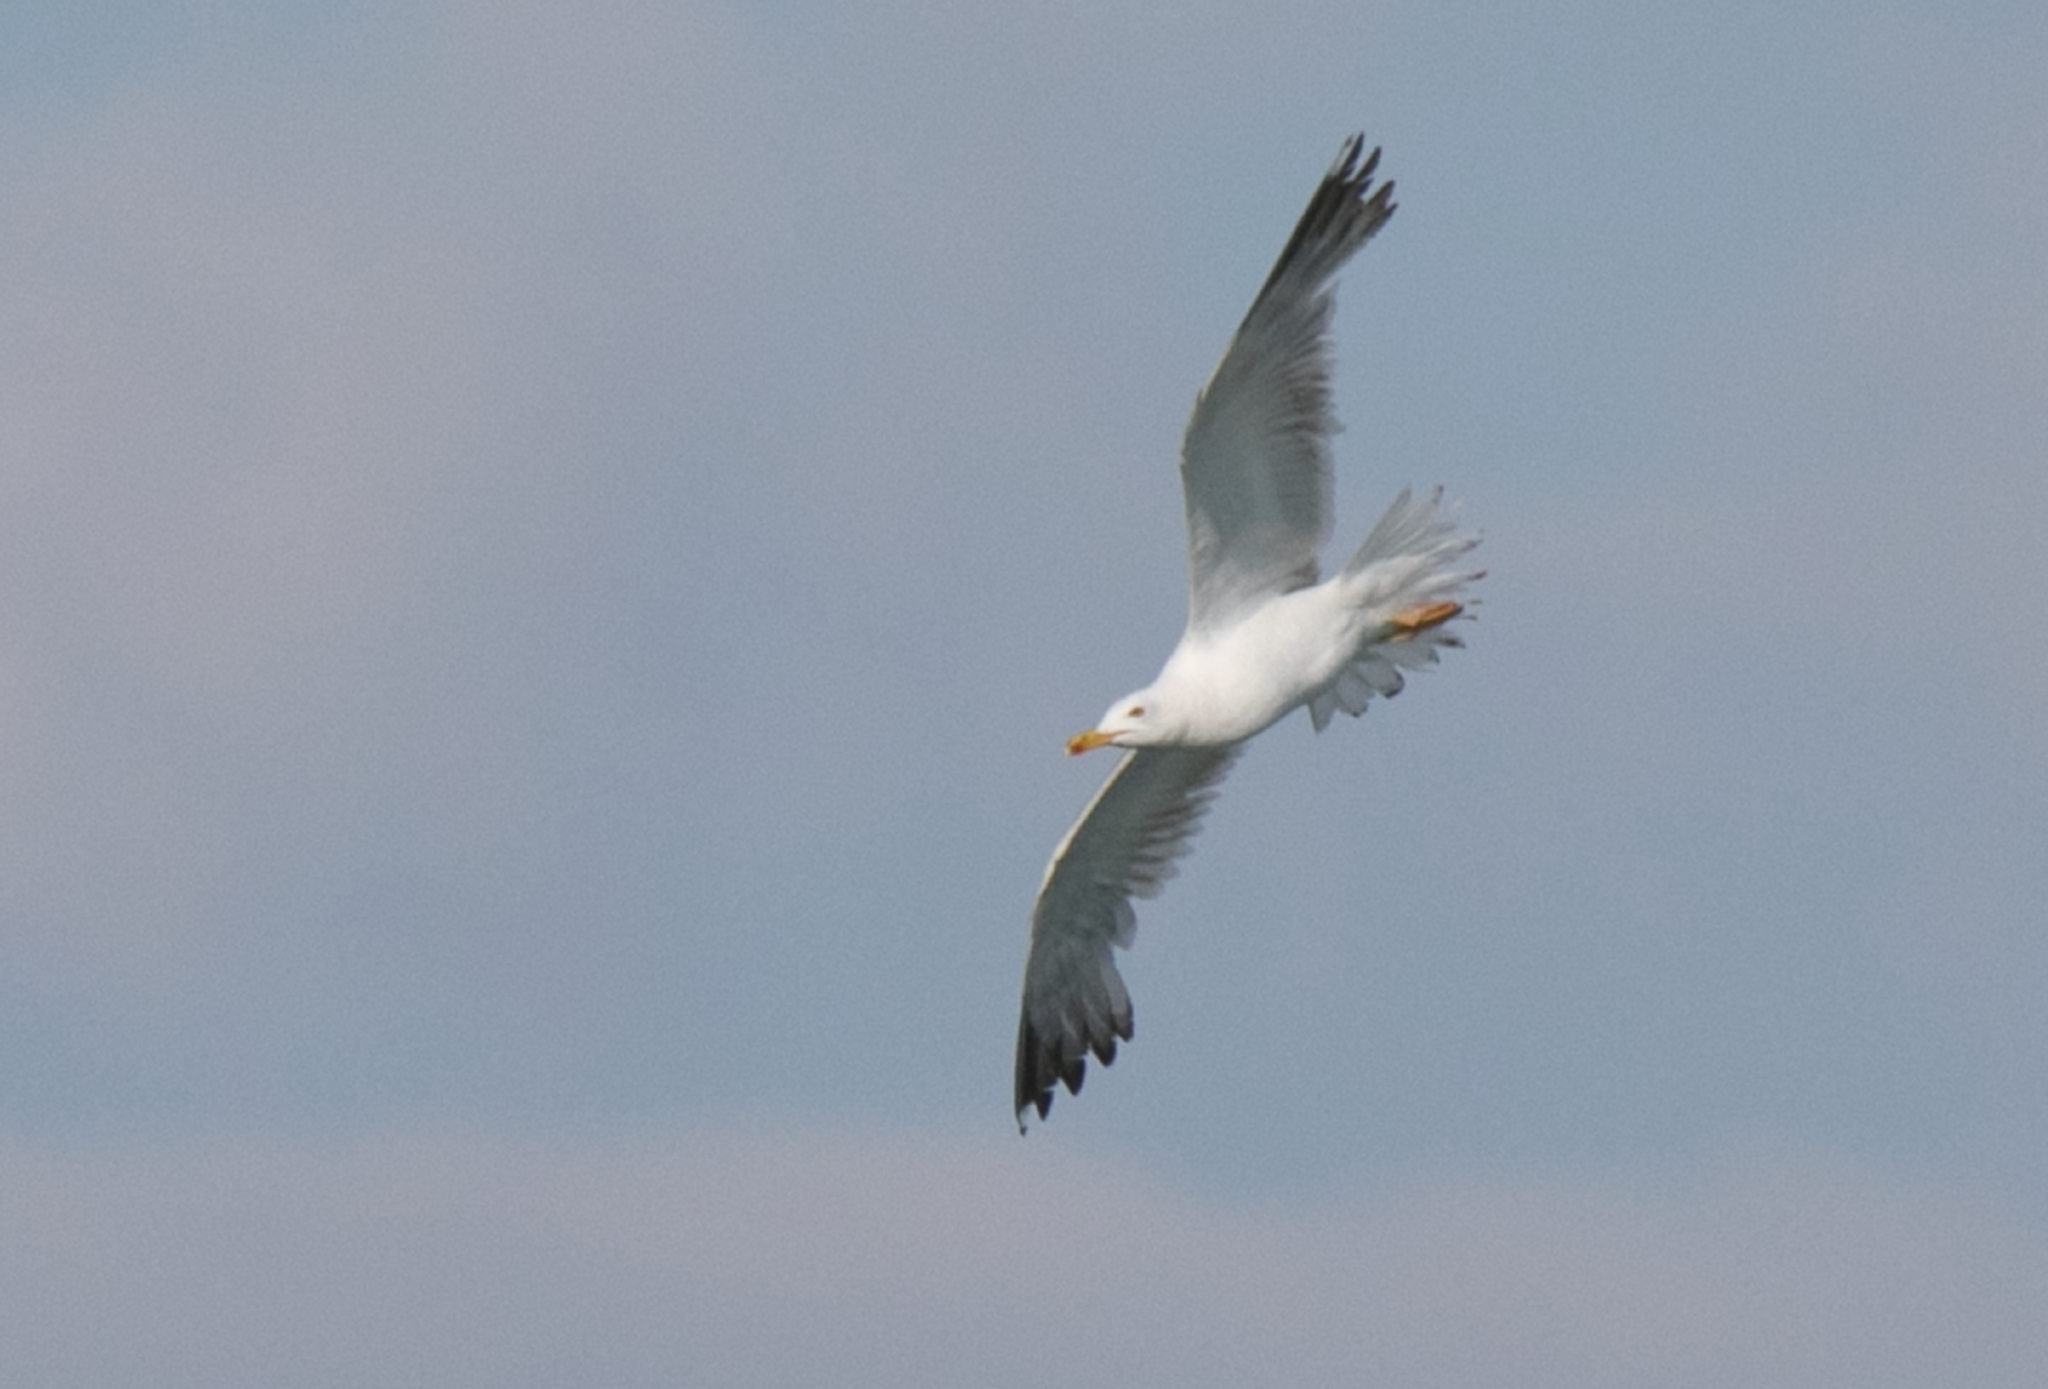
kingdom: Animalia
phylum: Chordata
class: Aves
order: Charadriiformes
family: Laridae
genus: Larus
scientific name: Larus michahellis
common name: Yellow-legged gull
